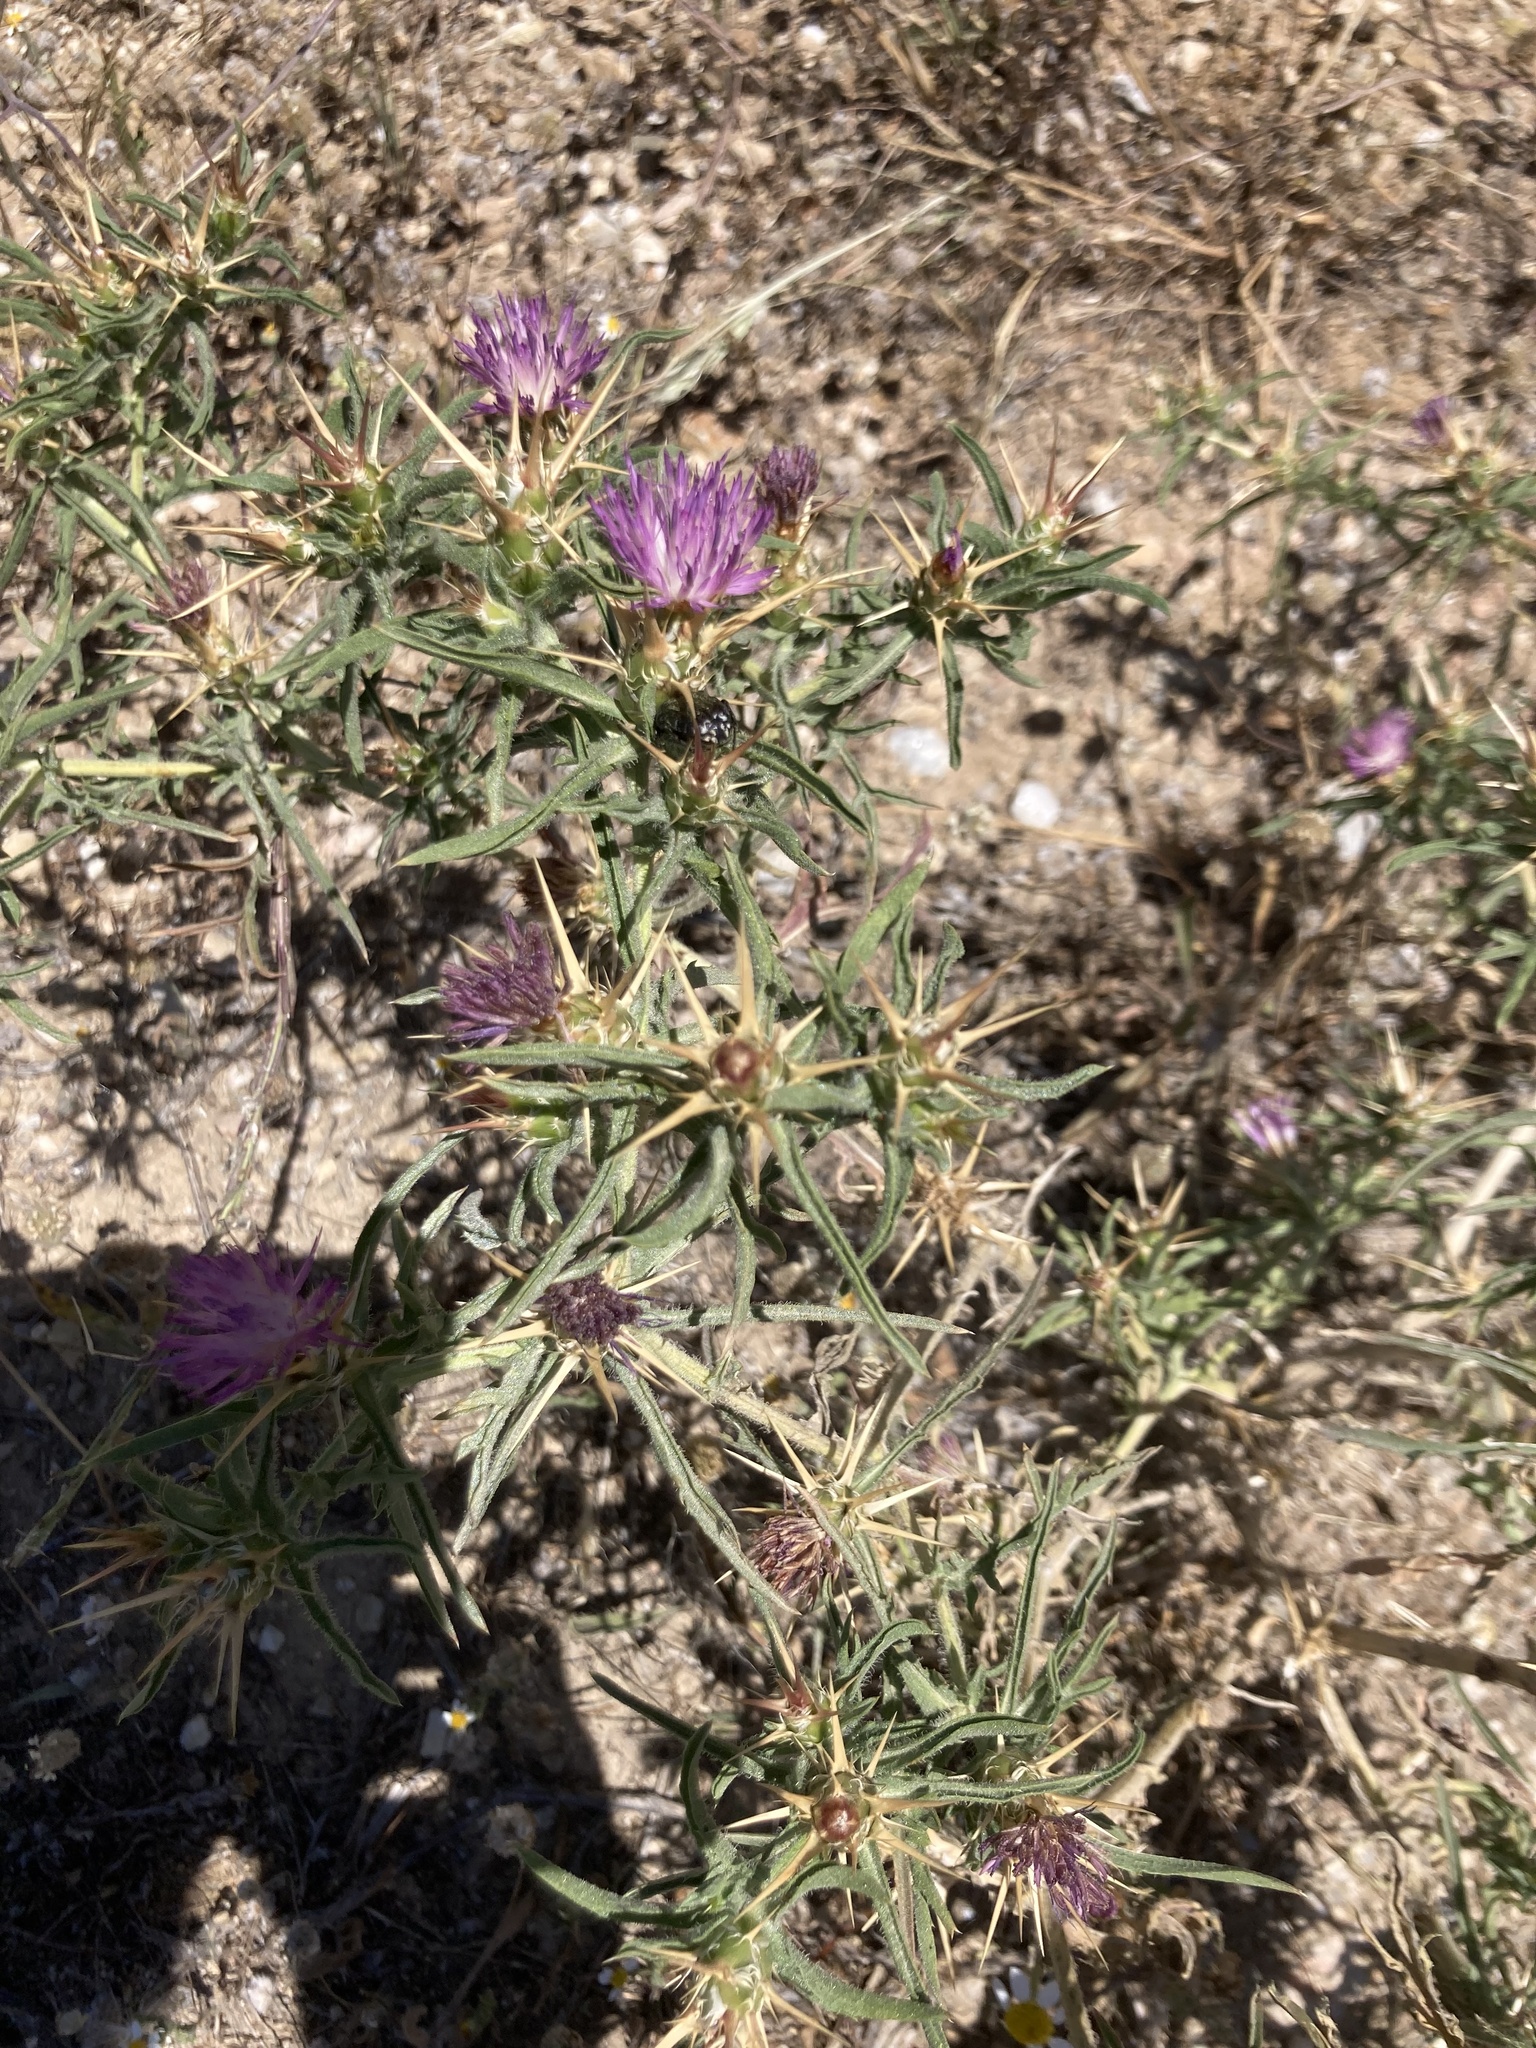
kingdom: Plantae
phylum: Tracheophyta
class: Magnoliopsida
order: Asterales
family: Asteraceae
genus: Centaurea
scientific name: Centaurea calcitrapa
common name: Red star-thistle
